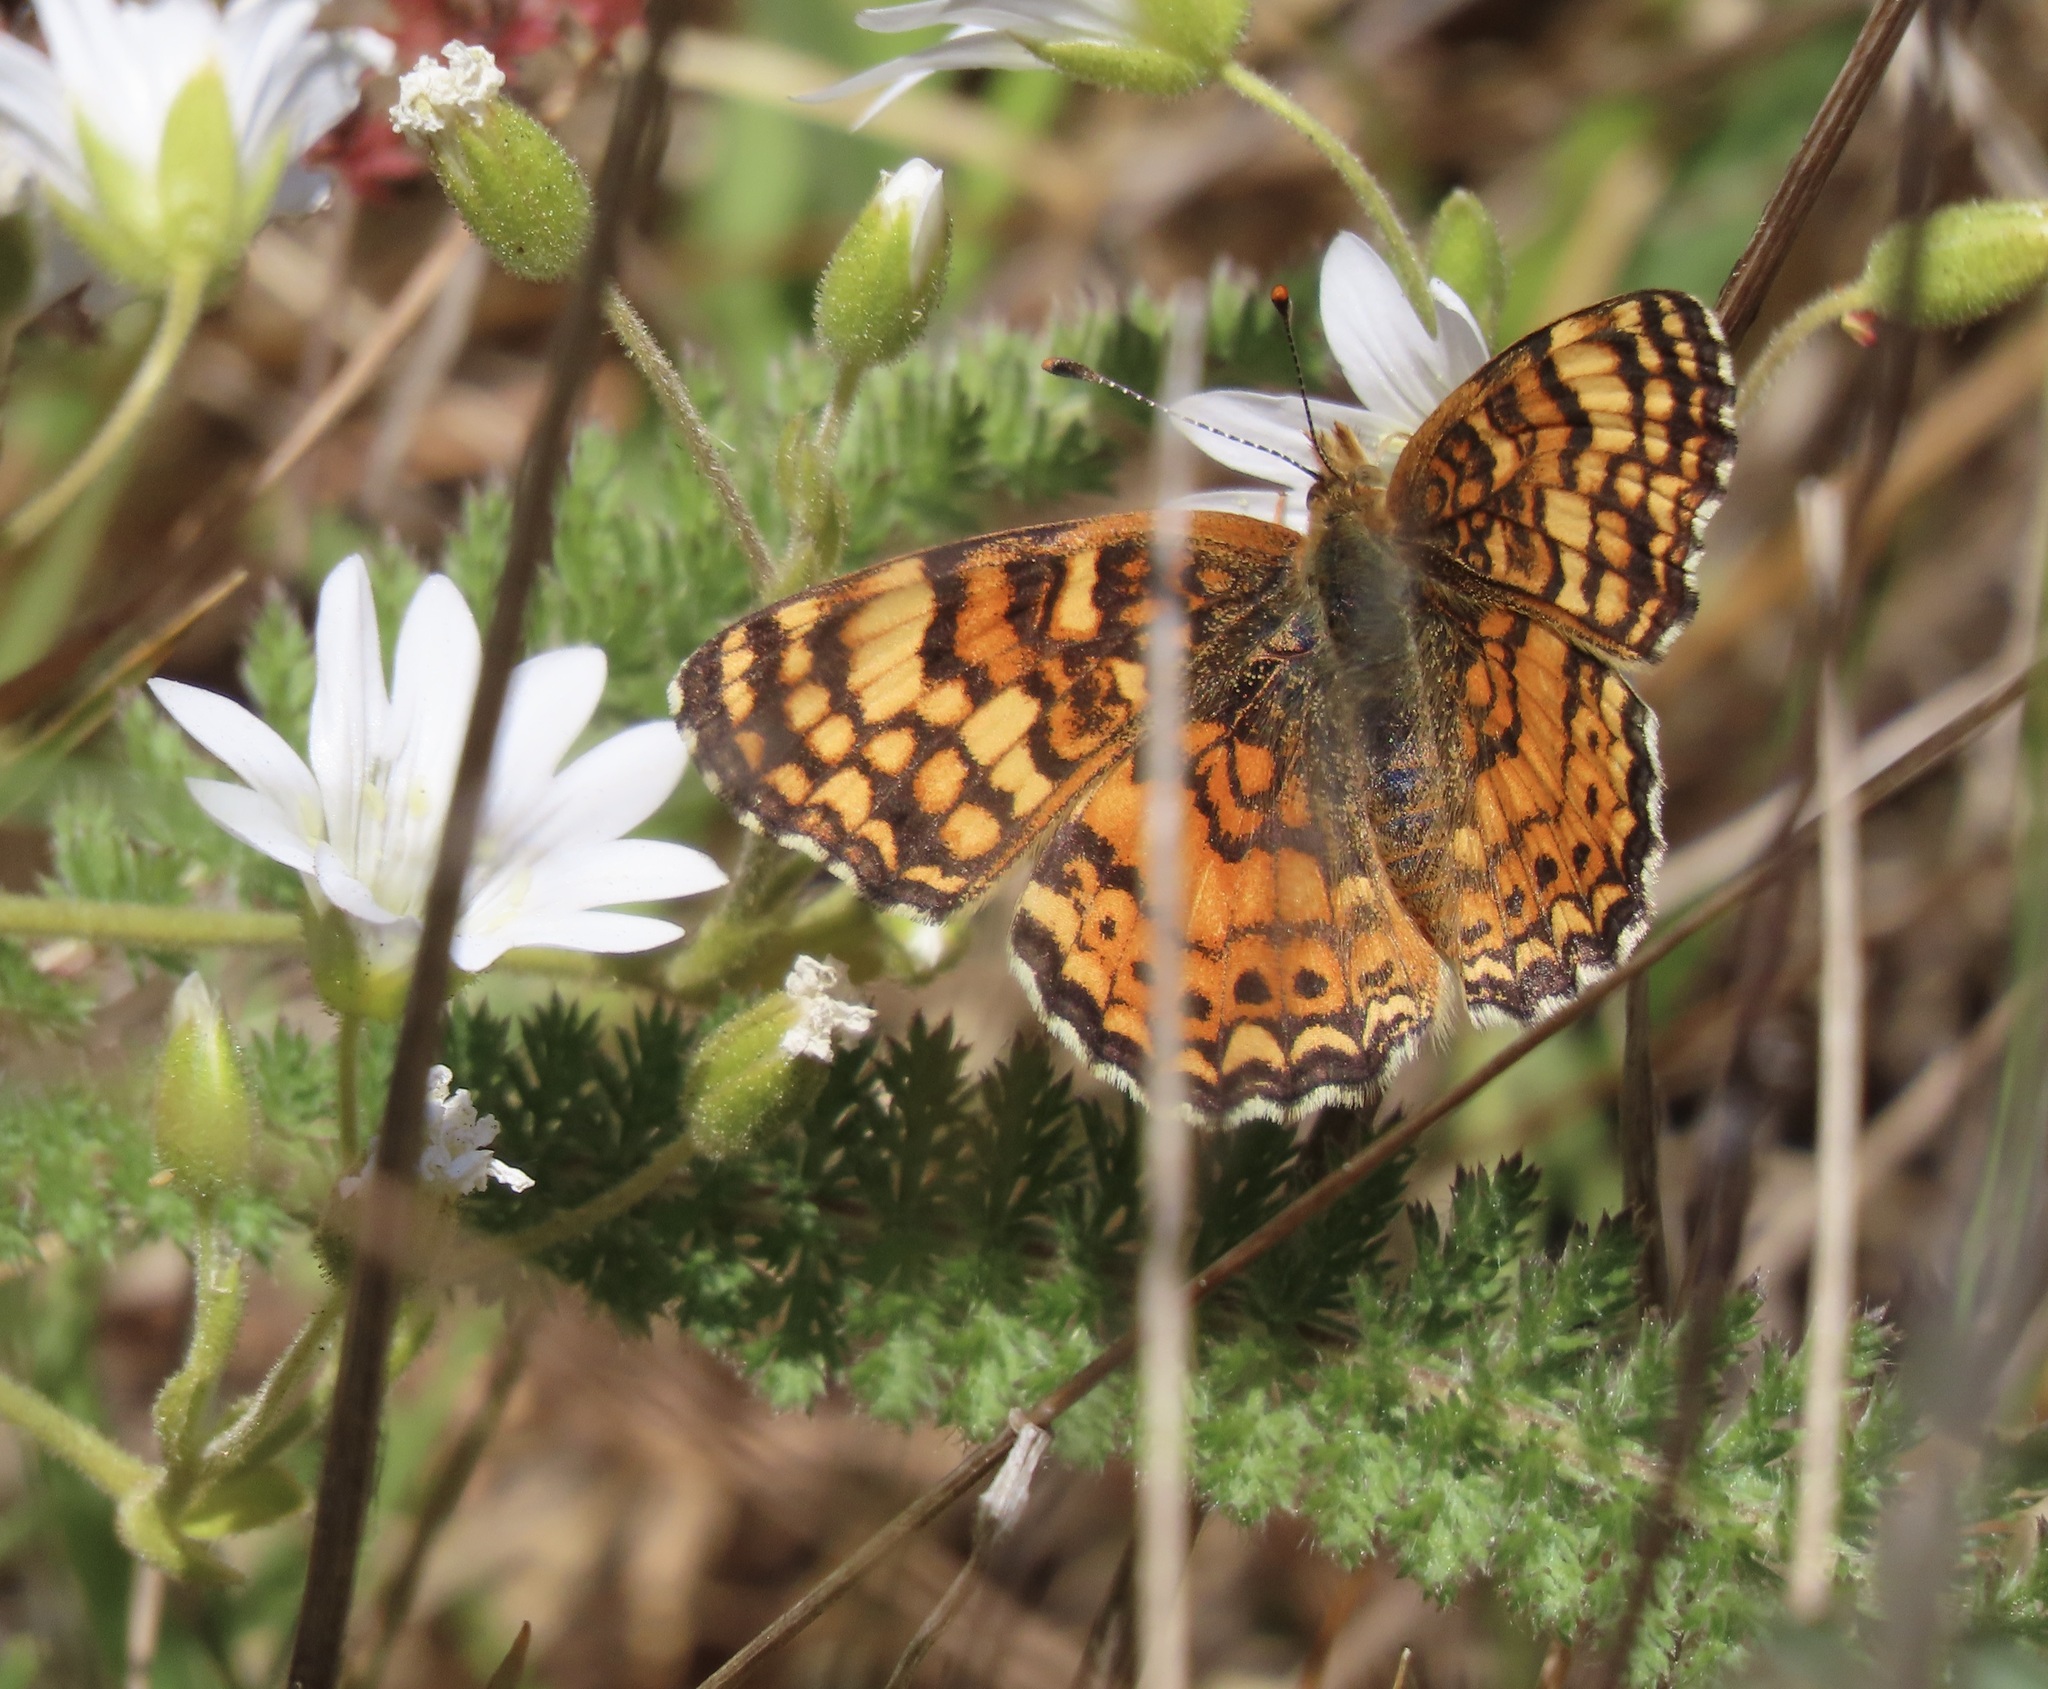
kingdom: Animalia
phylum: Arthropoda
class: Insecta
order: Lepidoptera
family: Nymphalidae
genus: Eresia
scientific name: Eresia aveyrona
